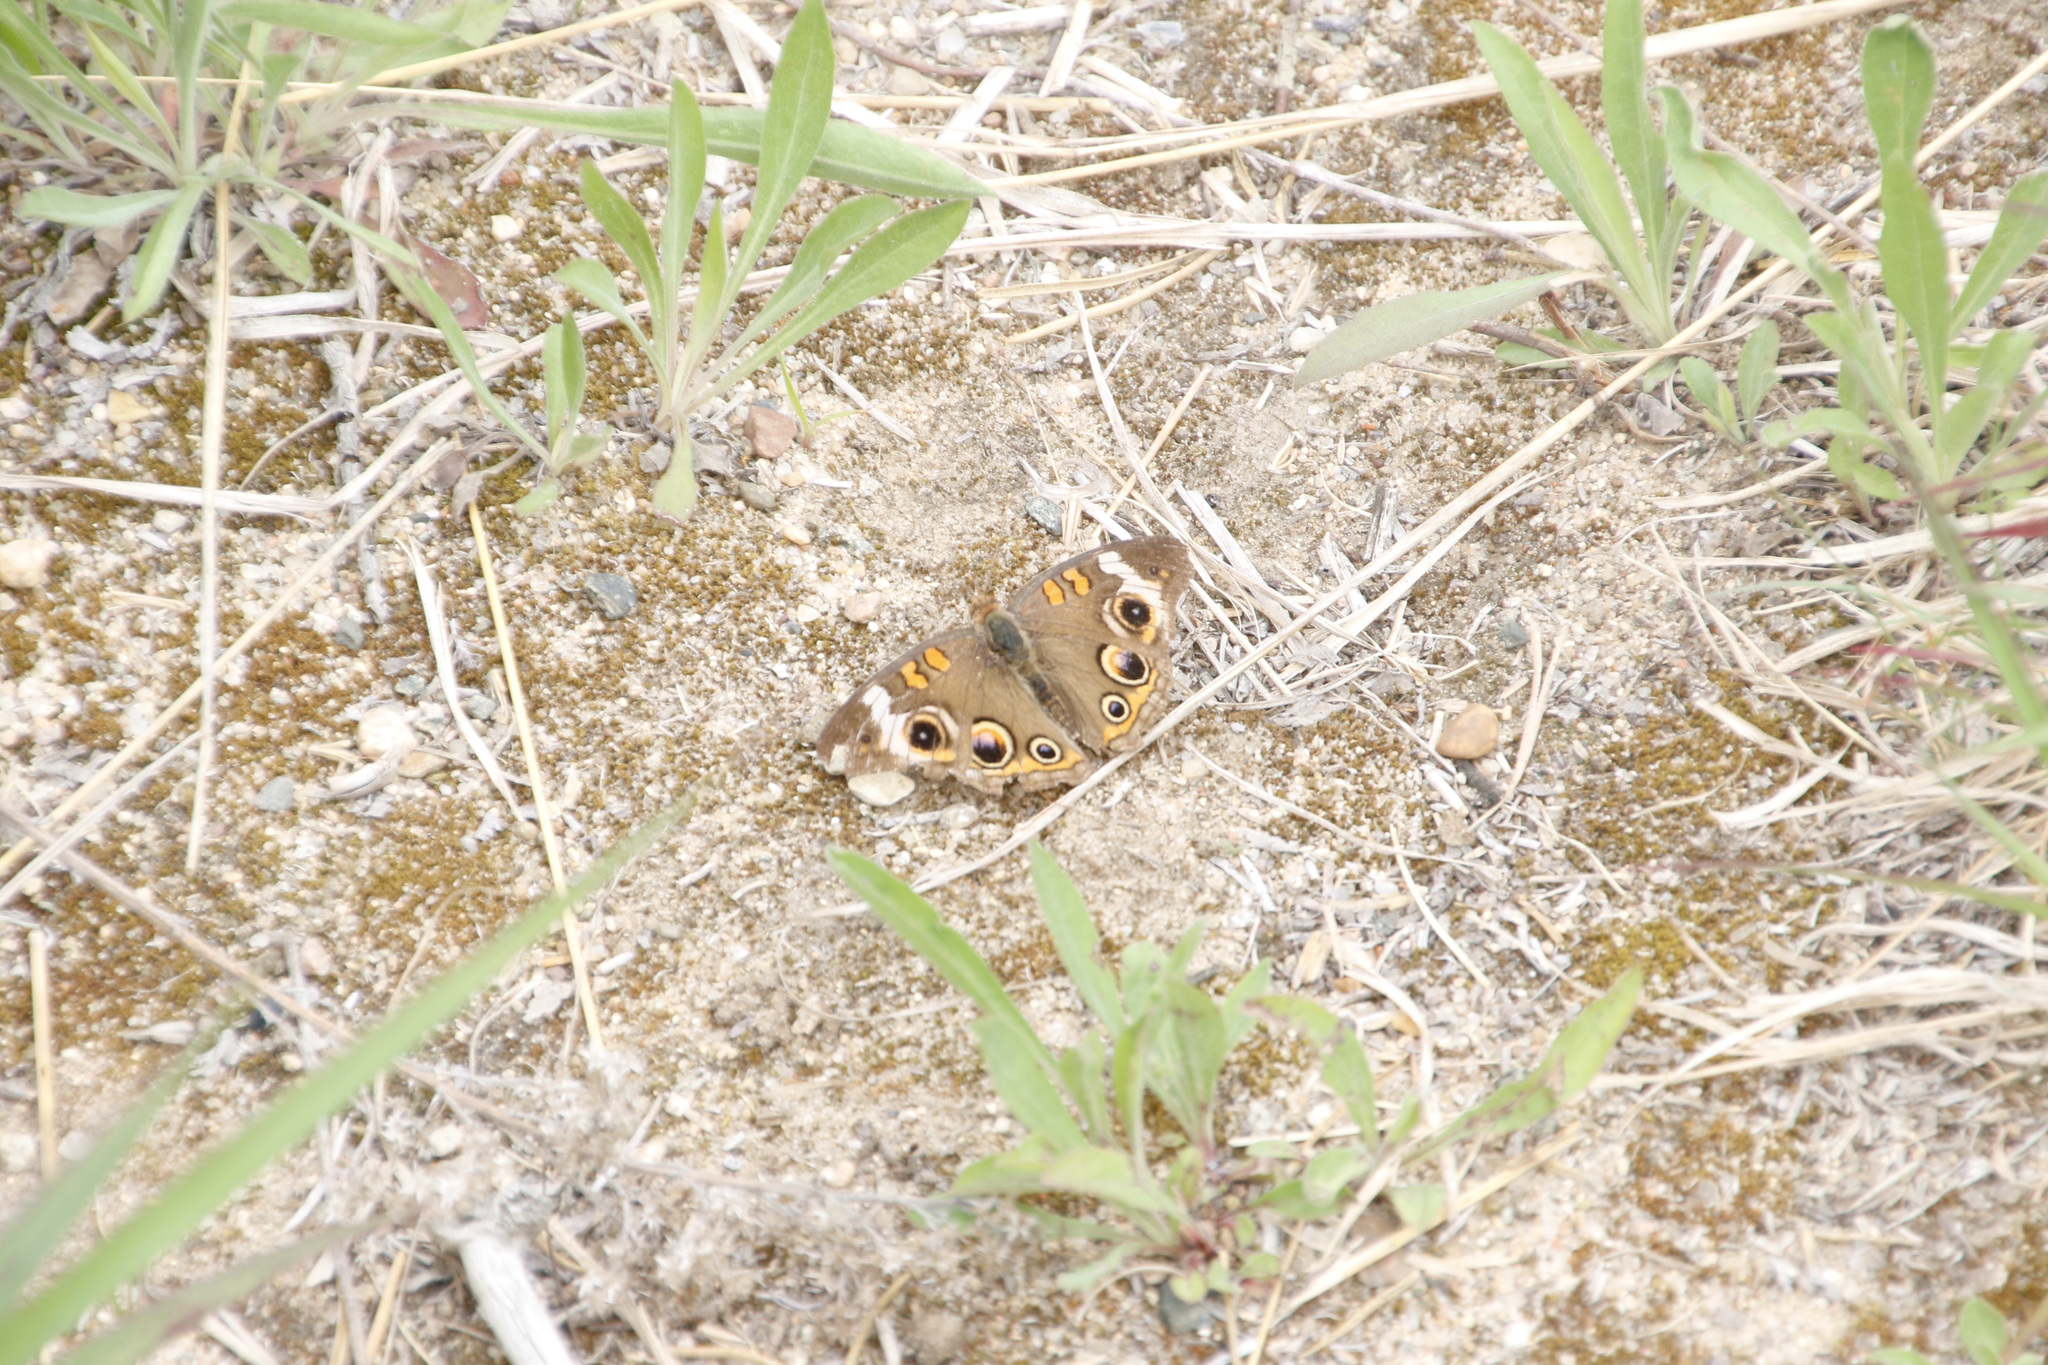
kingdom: Animalia
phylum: Arthropoda
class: Insecta
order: Lepidoptera
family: Nymphalidae
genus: Junonia
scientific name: Junonia coenia
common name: Common buckeye
